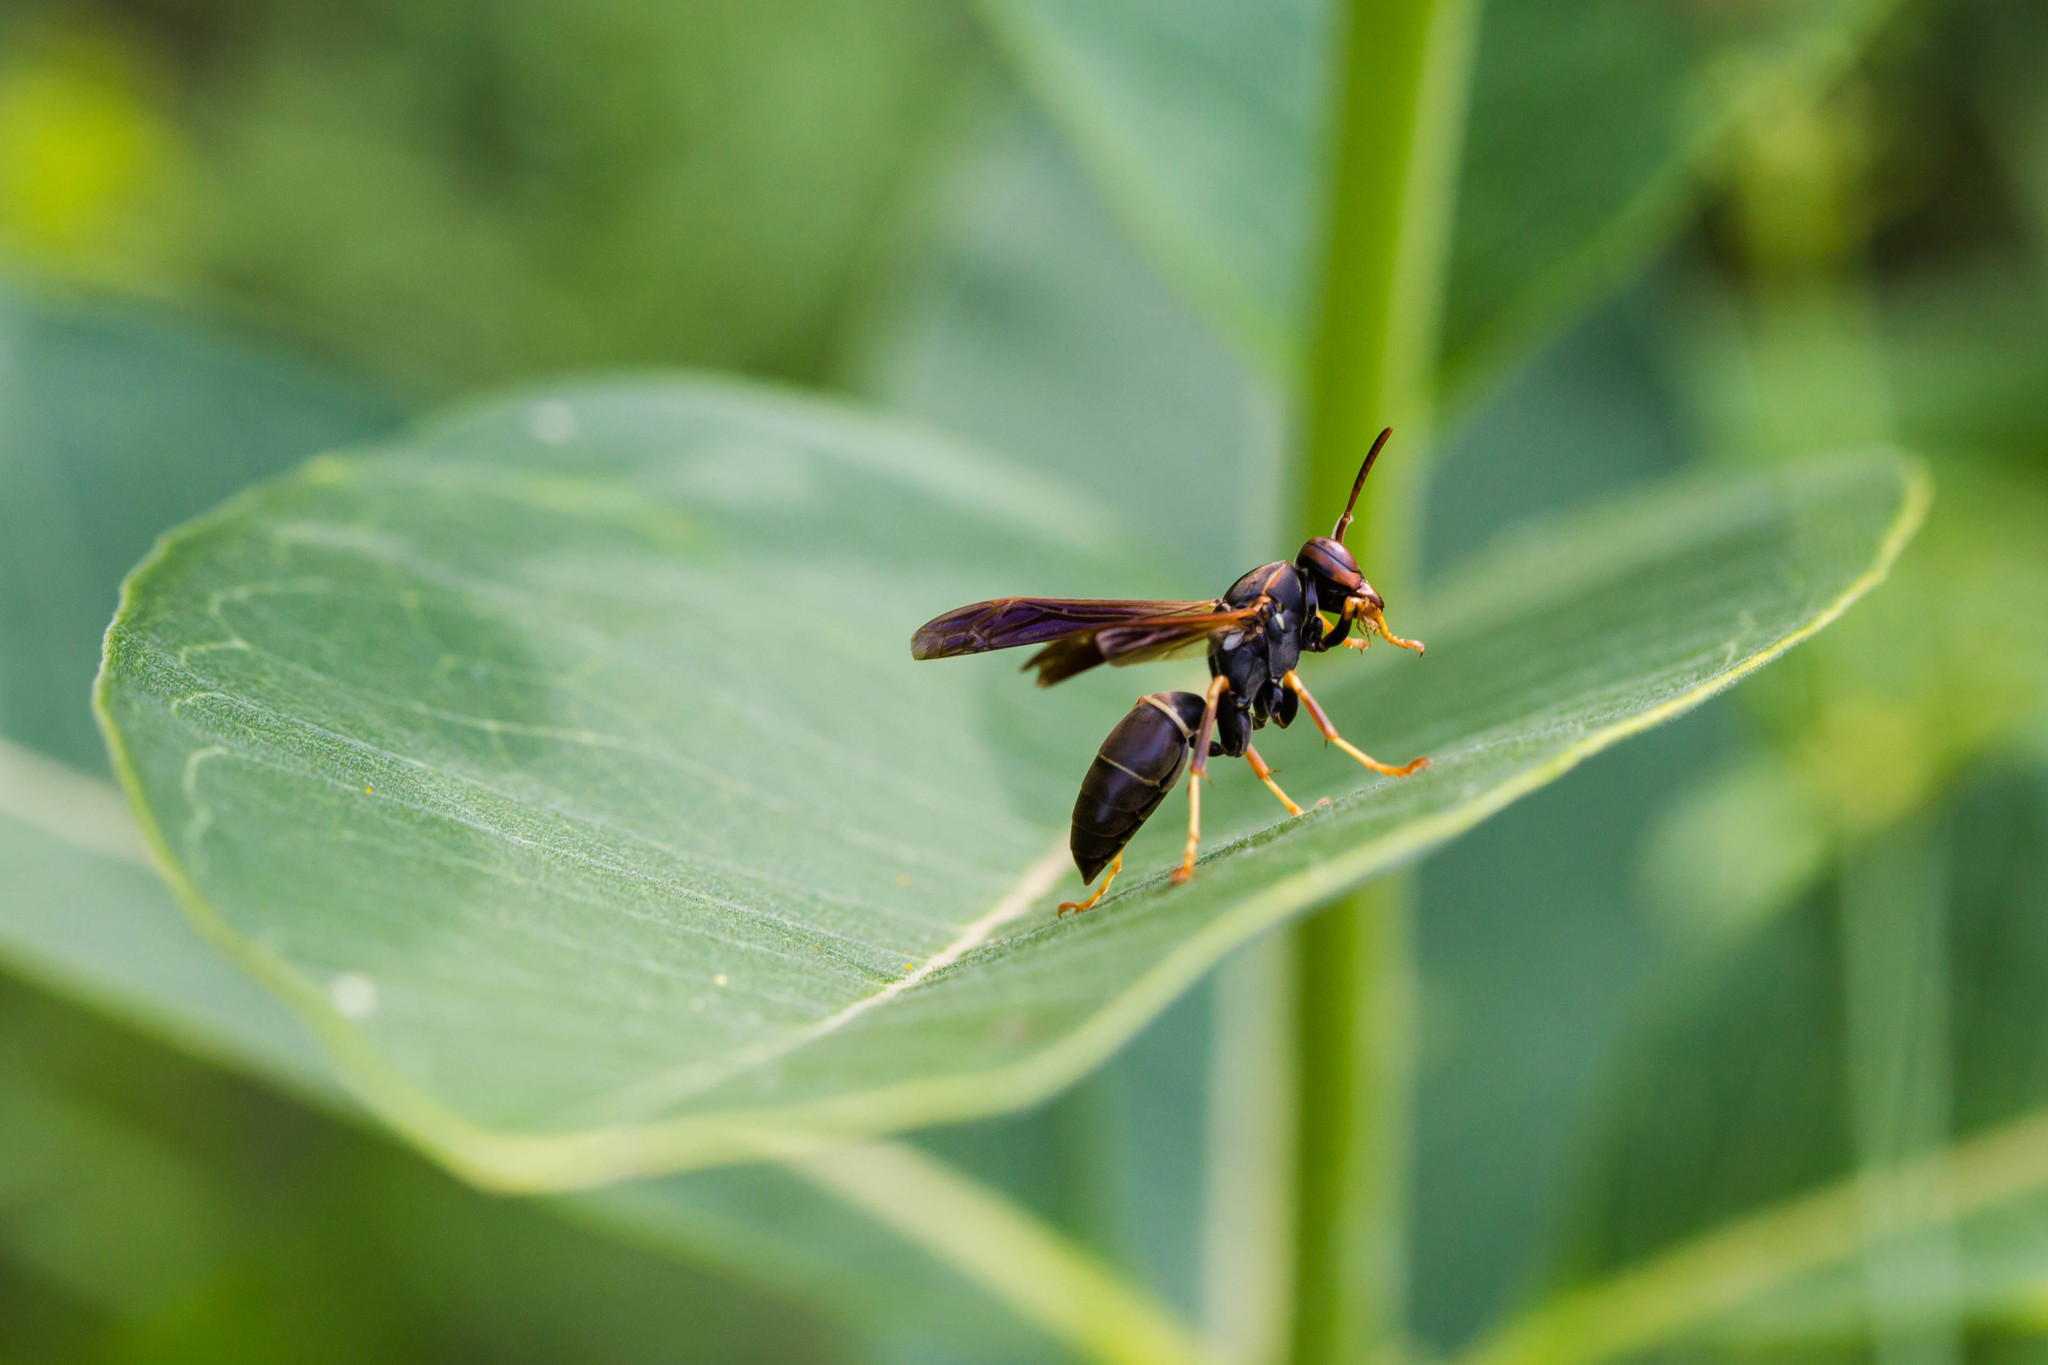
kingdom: Animalia
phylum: Arthropoda
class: Insecta
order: Hymenoptera
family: Eumenidae
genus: Polistes
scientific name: Polistes fuscatus
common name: Dark paper wasp
